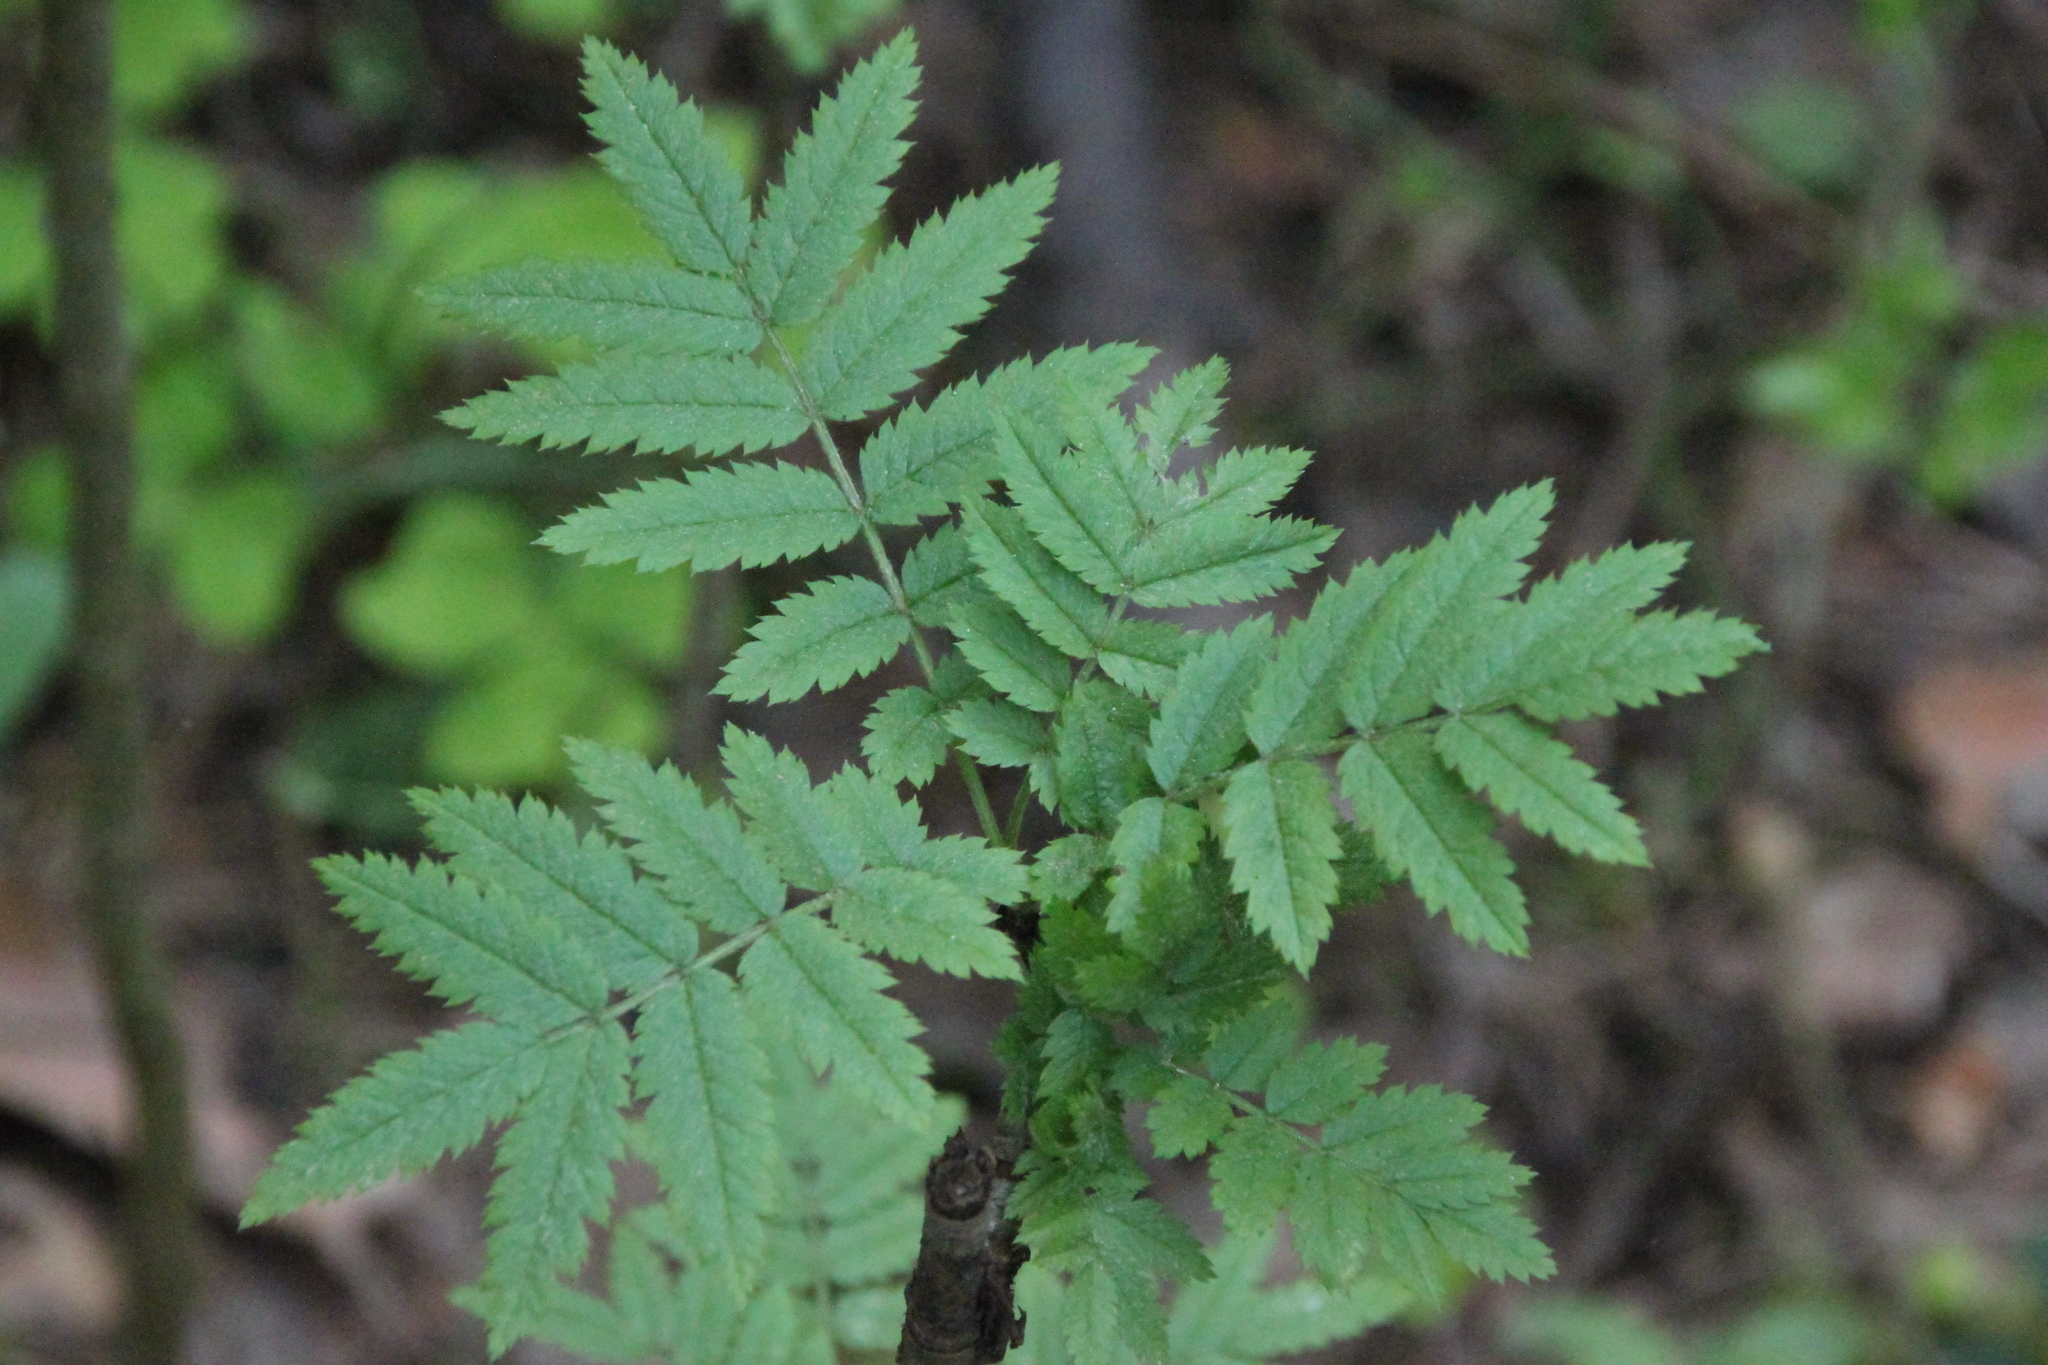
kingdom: Plantae
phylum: Tracheophyta
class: Magnoliopsida
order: Rosales
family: Rosaceae
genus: Sorbus
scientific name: Sorbus aucuparia
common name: Rowan
